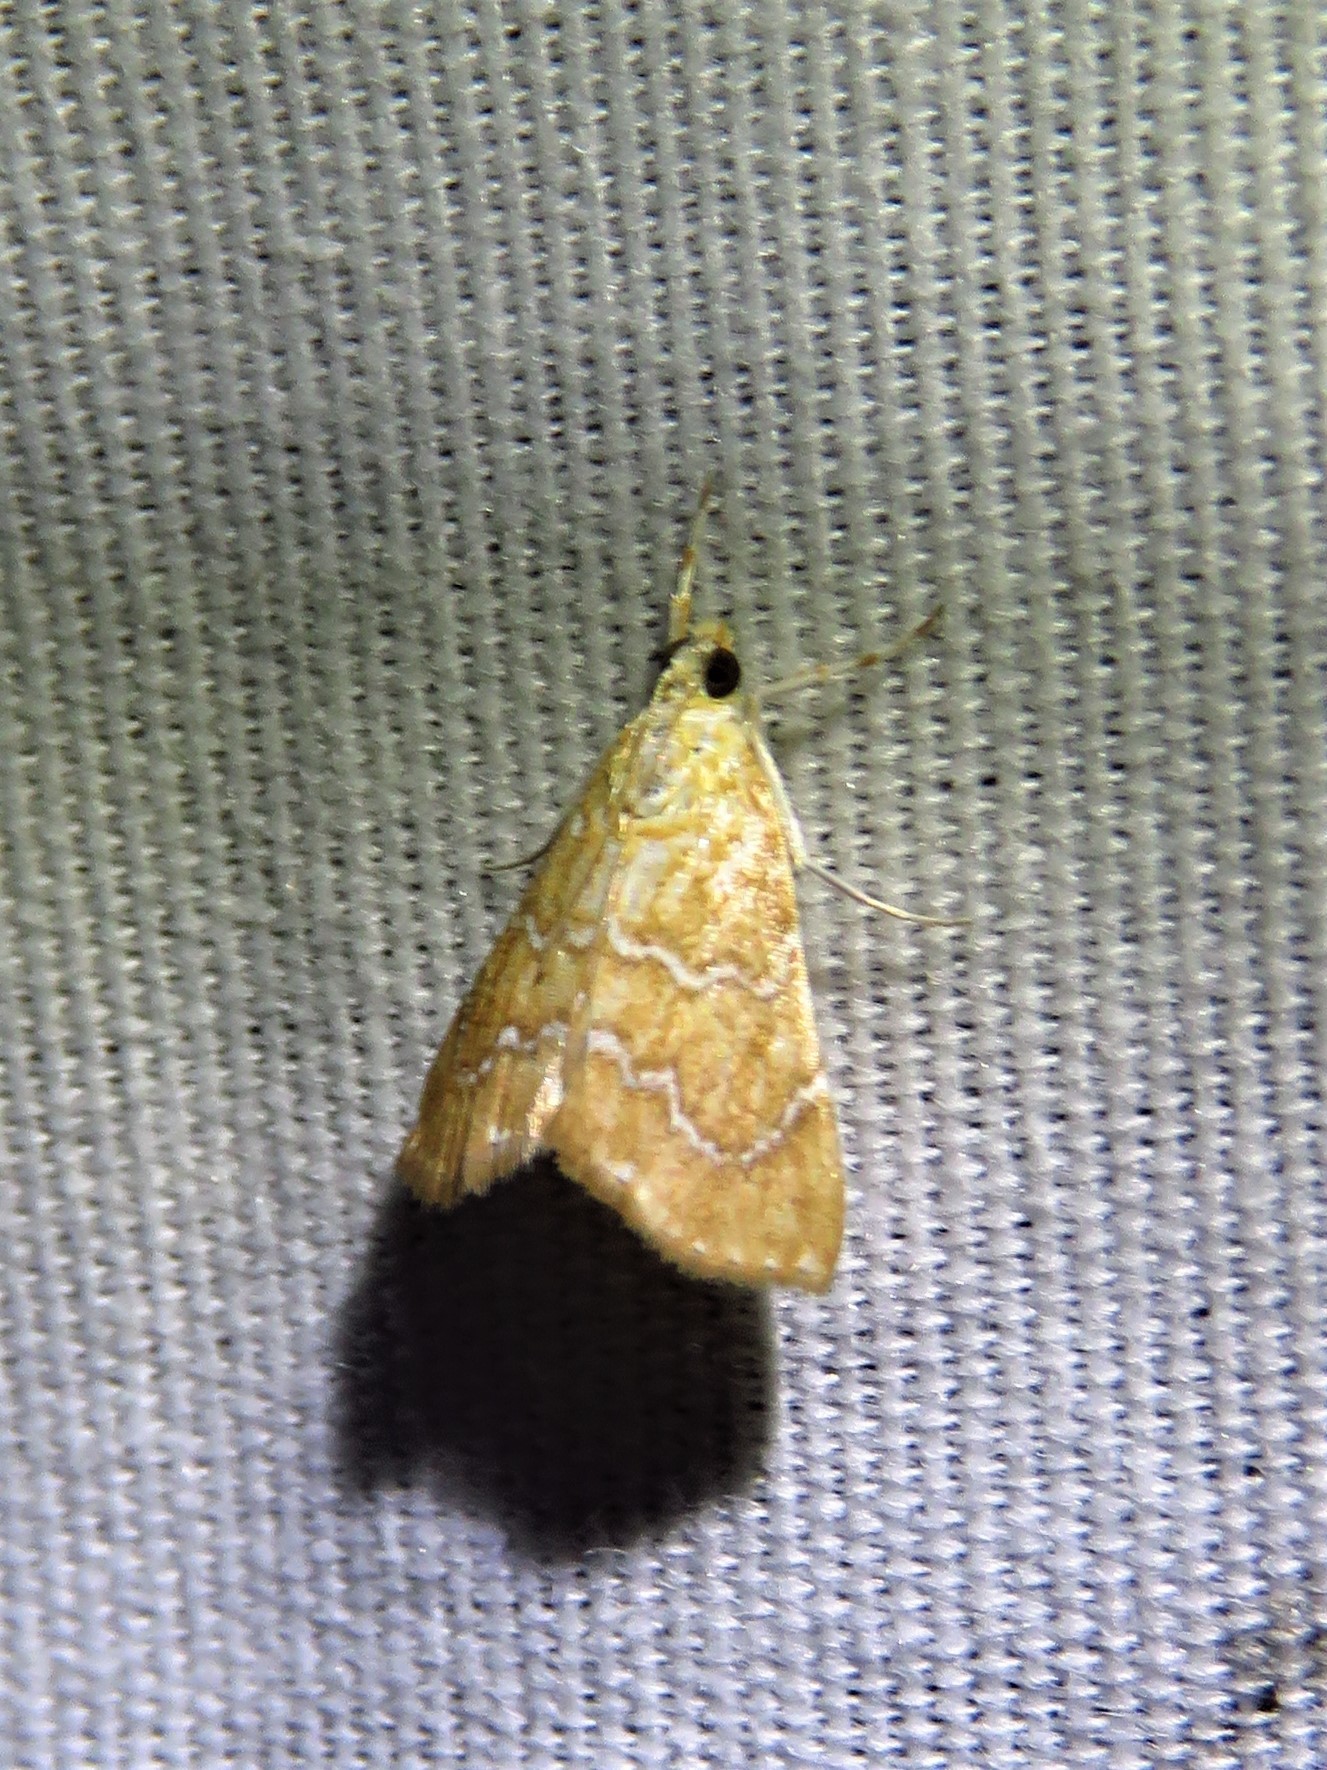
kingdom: Animalia
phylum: Arthropoda
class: Insecta
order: Lepidoptera
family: Crambidae
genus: Glaphyria
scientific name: Glaphyria sesquistrialis
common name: White-roped glaphyria
